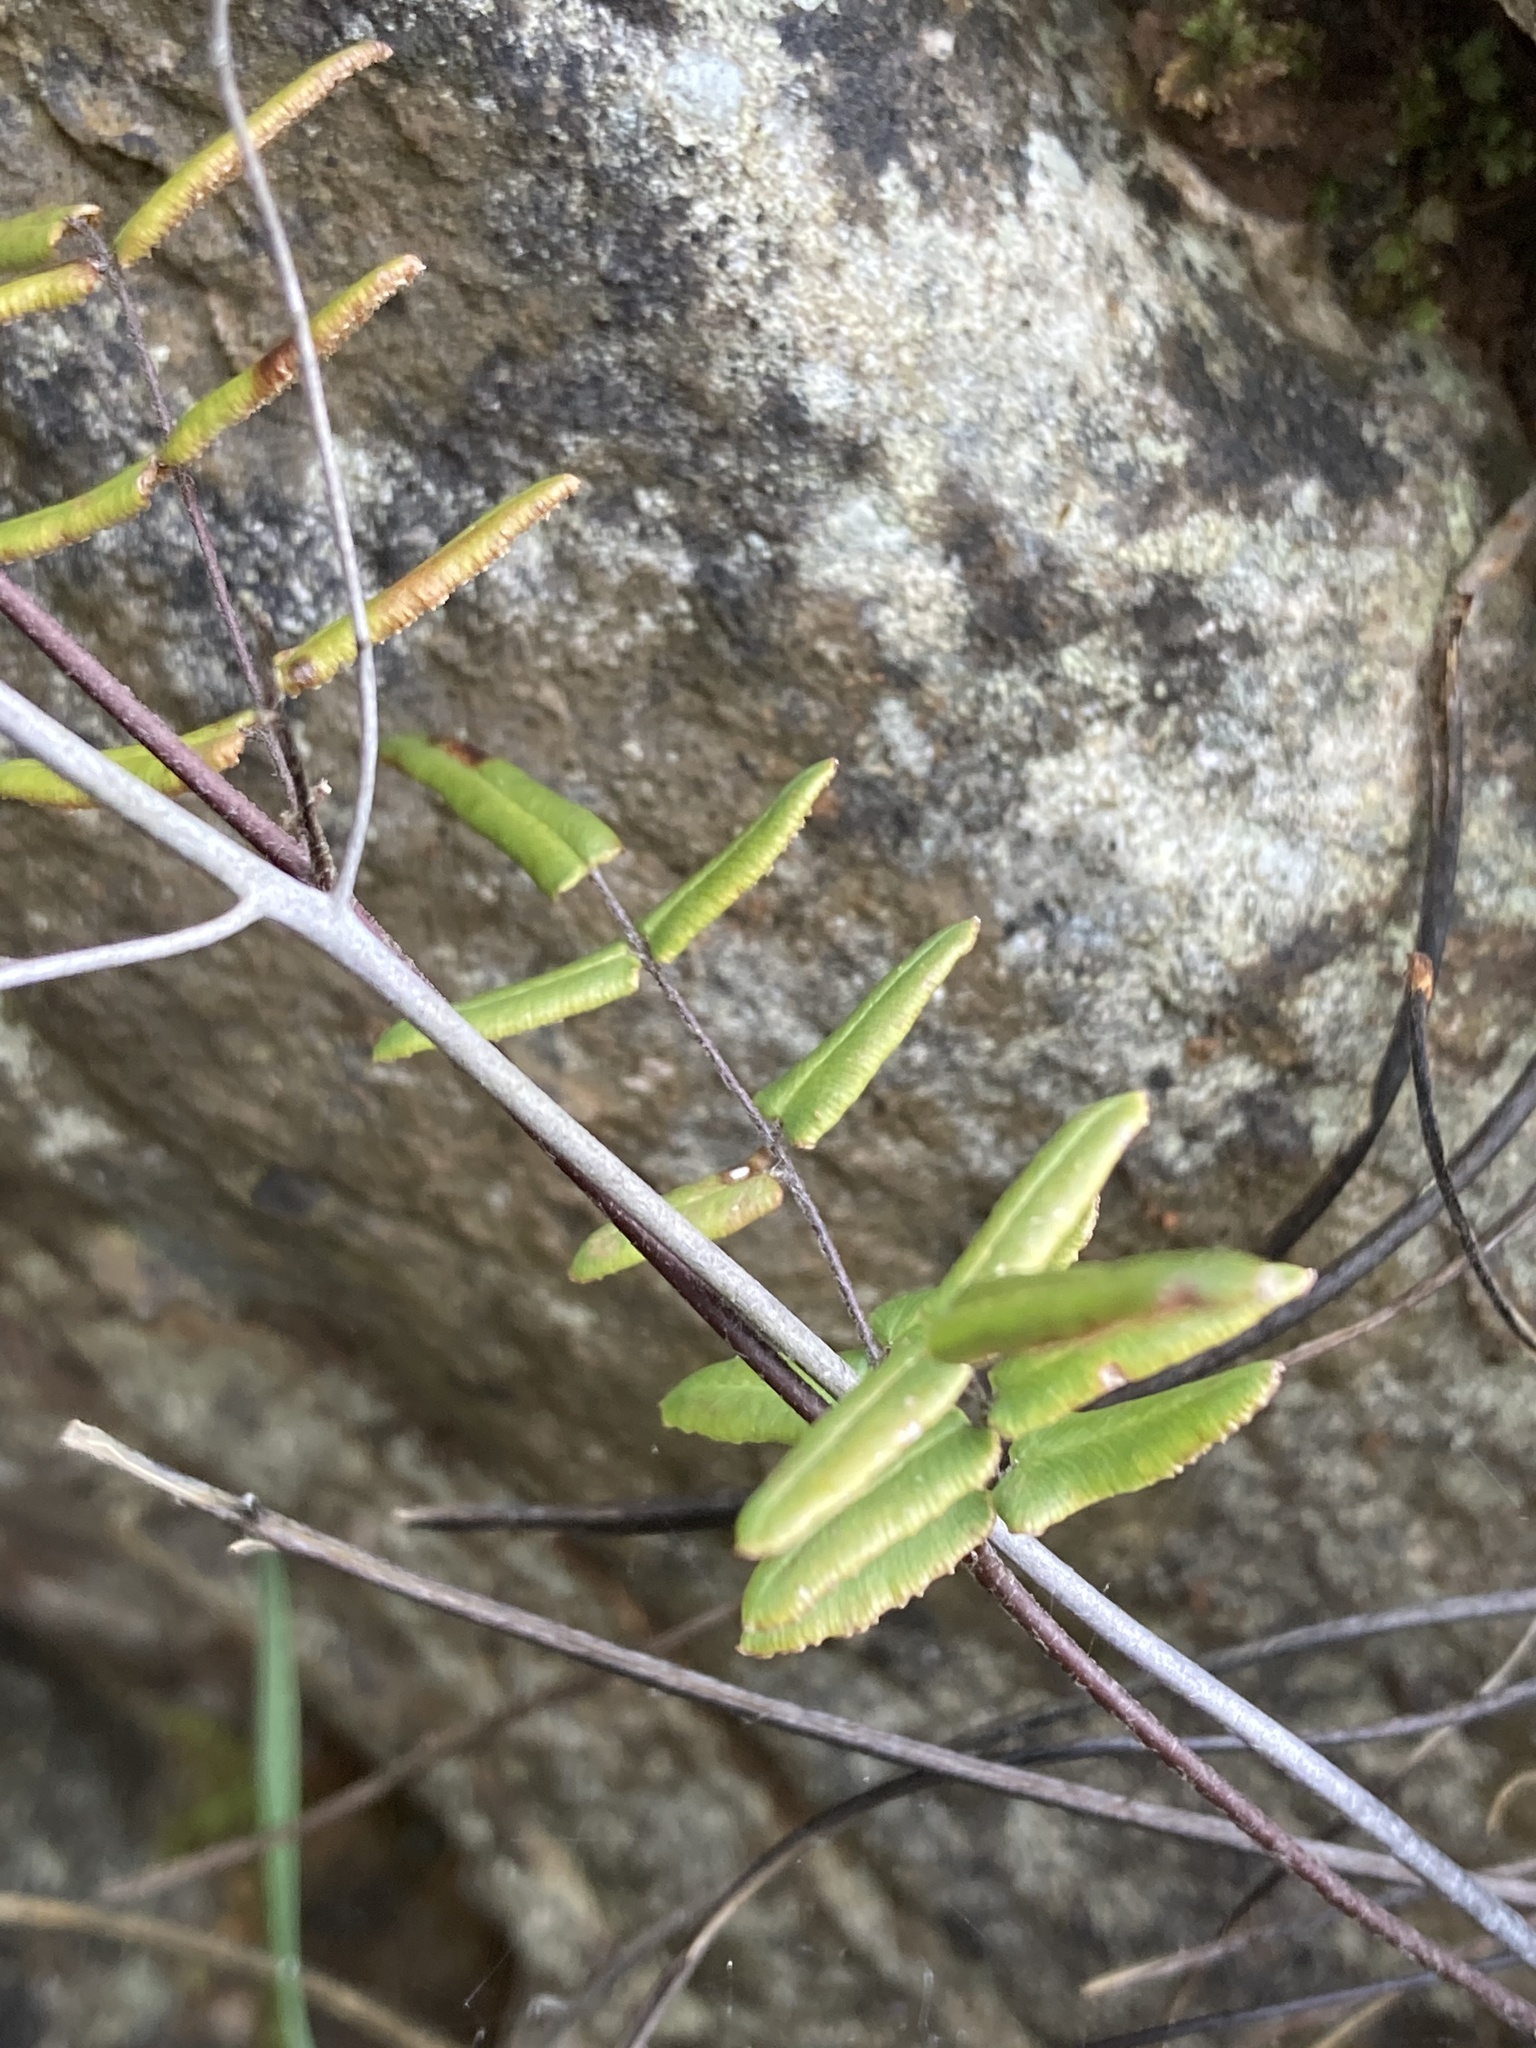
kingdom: Plantae
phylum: Tracheophyta
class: Polypodiopsida
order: Polypodiales
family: Pteridaceae
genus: Pellaea
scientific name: Pellaea atropurpurea
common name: Hairy cliffbrake
